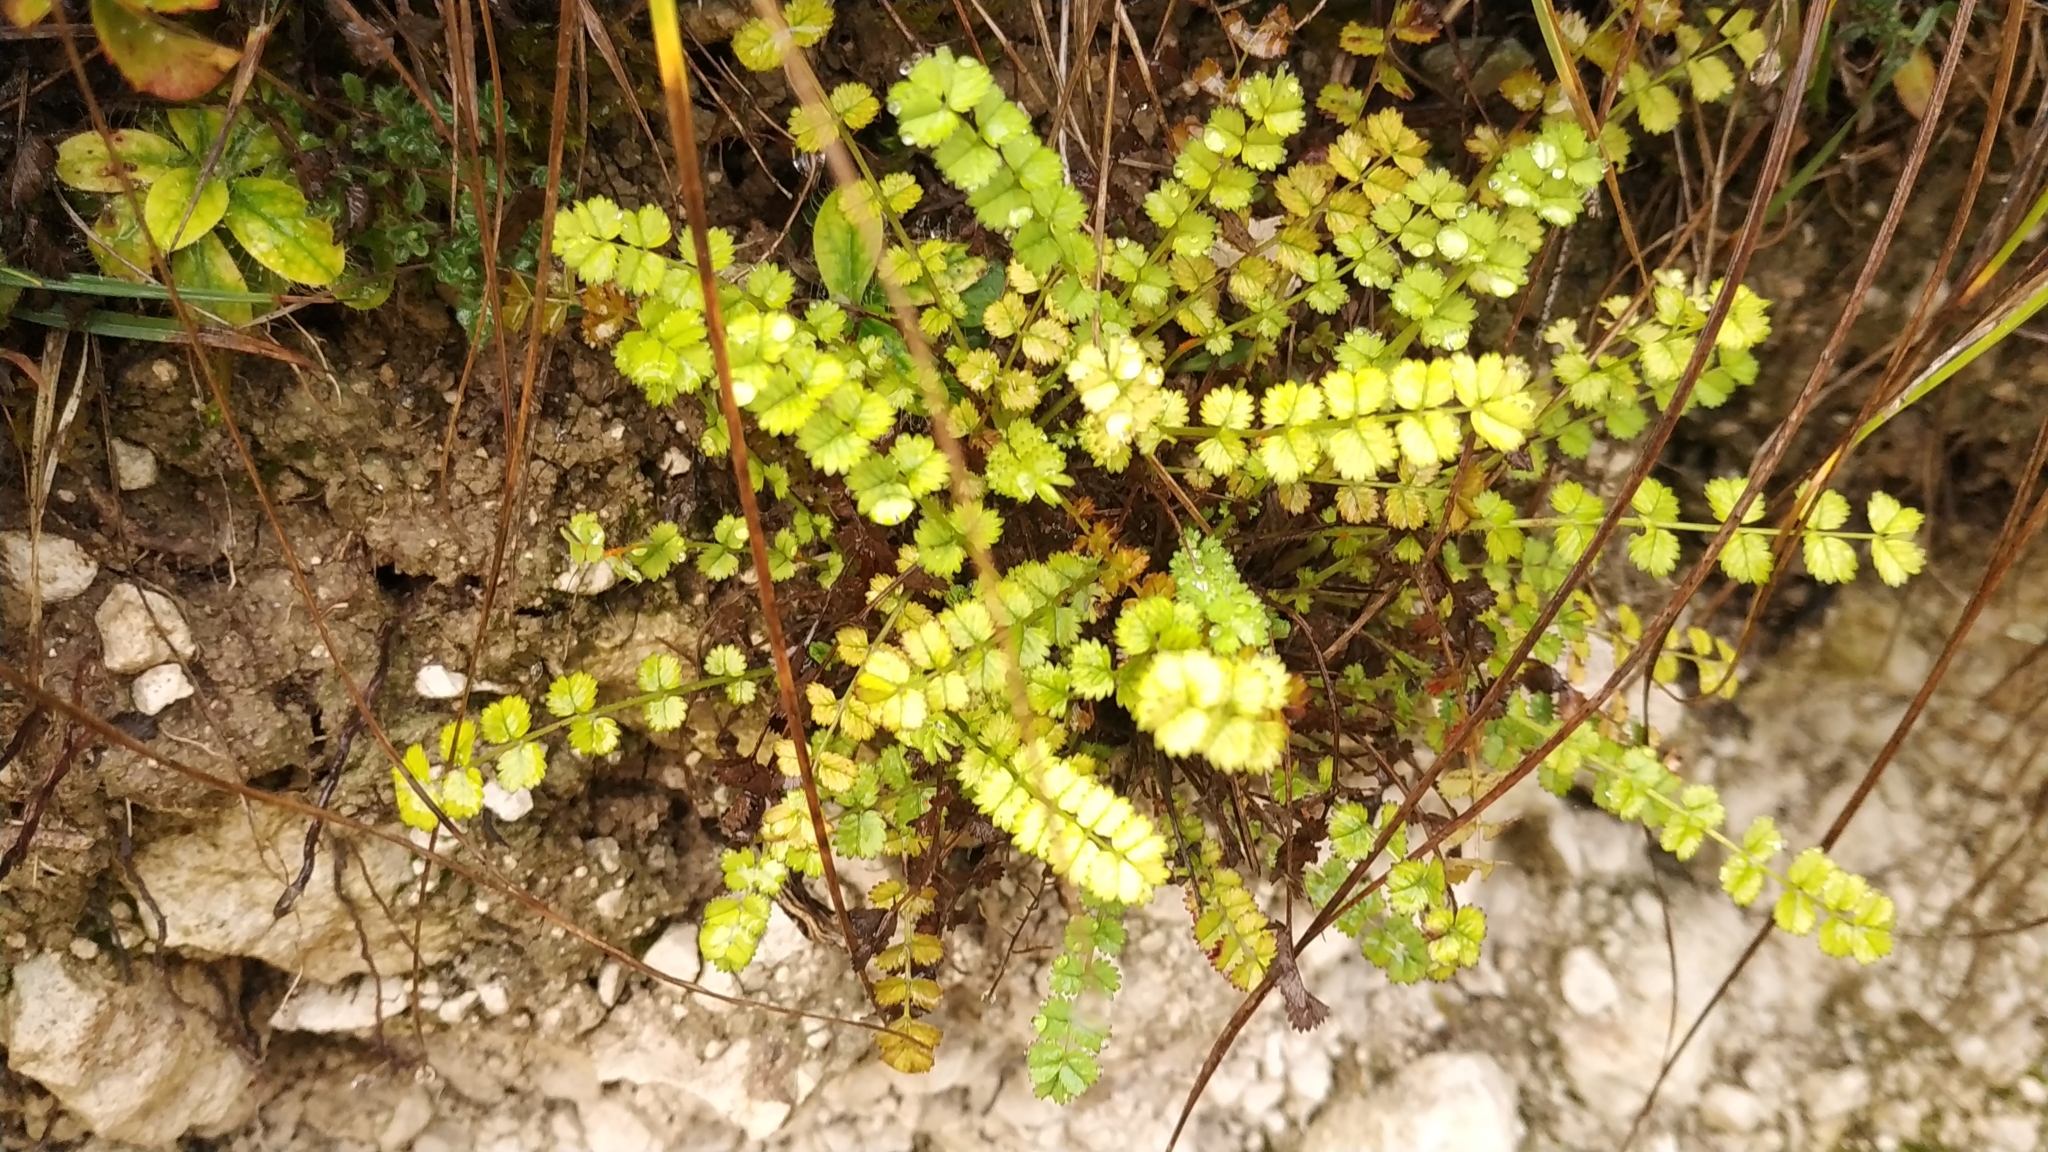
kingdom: Plantae
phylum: Tracheophyta
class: Magnoliopsida
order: Rosales
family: Rosaceae
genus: Poterium
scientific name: Poterium sanguisorba
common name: Salad burnet
